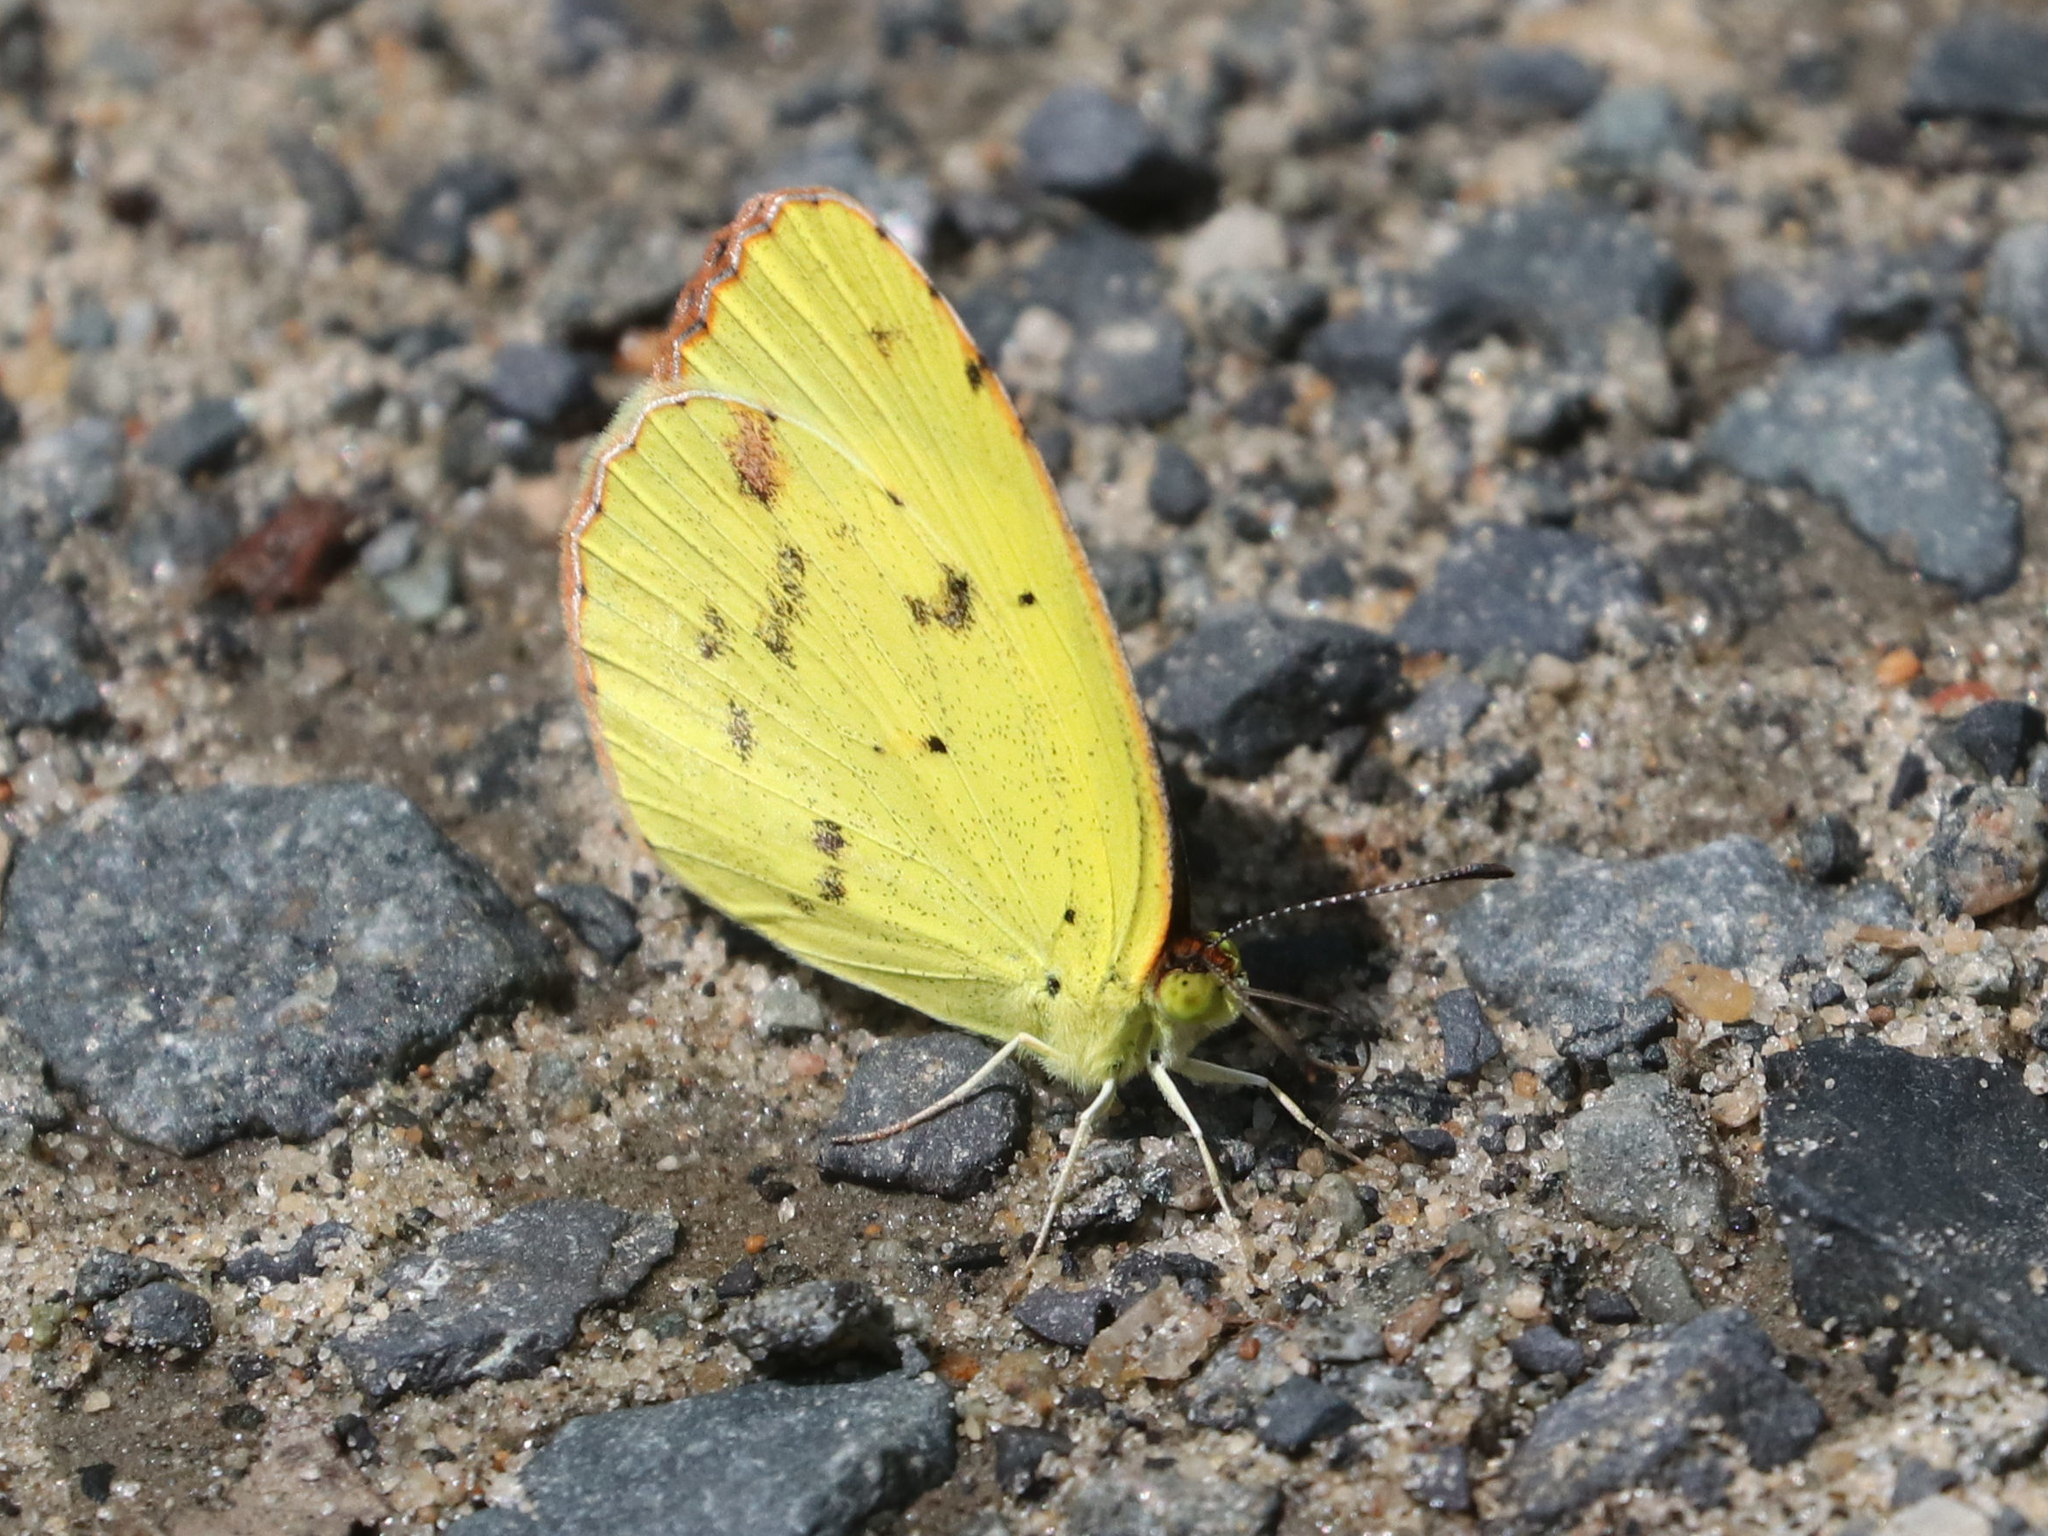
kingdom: Animalia
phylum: Arthropoda
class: Insecta
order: Lepidoptera
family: Pieridae
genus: Pyrisitia
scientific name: Pyrisitia lisa
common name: Little yellow
